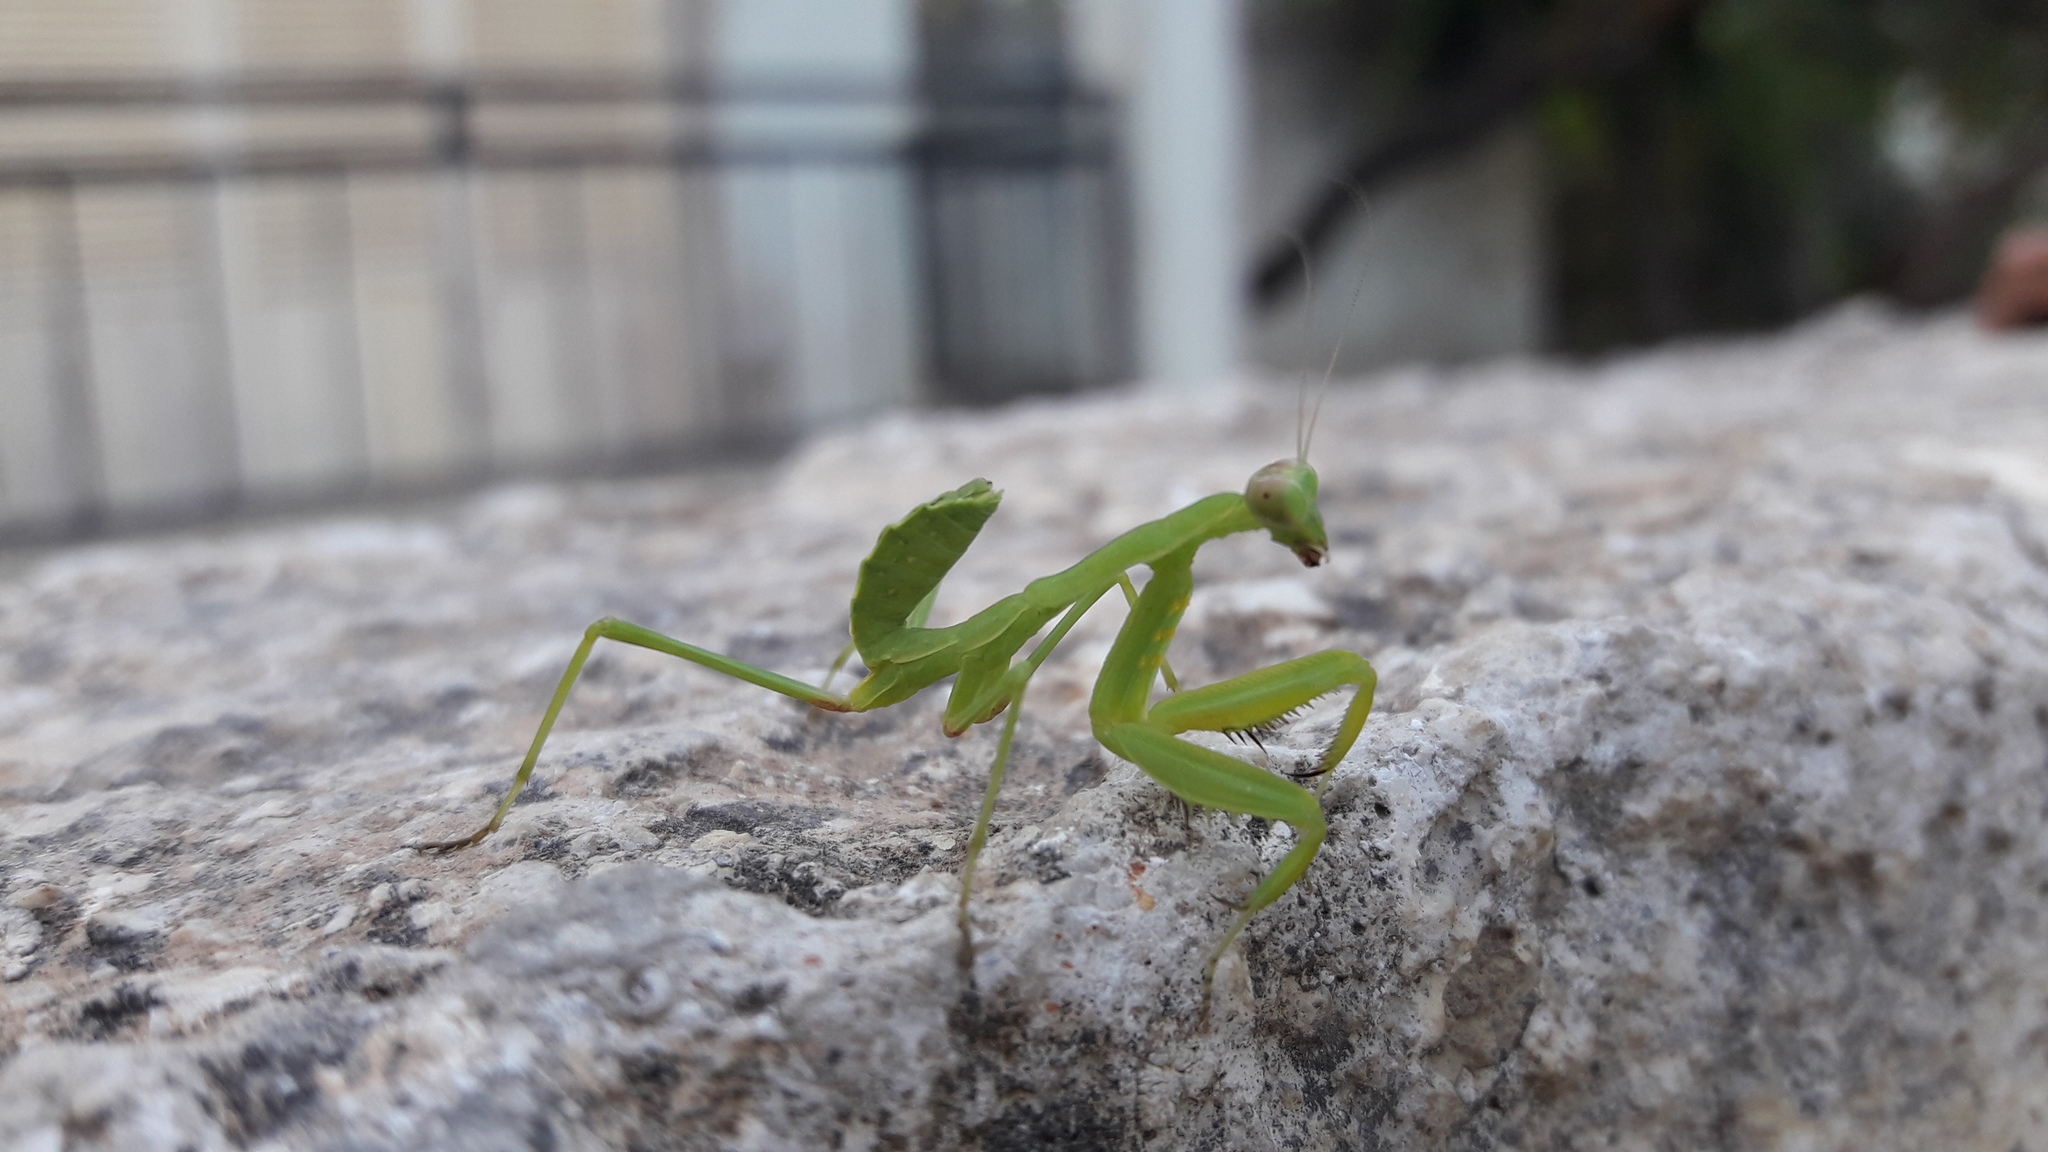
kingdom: Animalia
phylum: Arthropoda
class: Insecta
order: Mantodea
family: Mantidae
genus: Sphodromantis
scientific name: Sphodromantis viridis
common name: Giant african mantis
